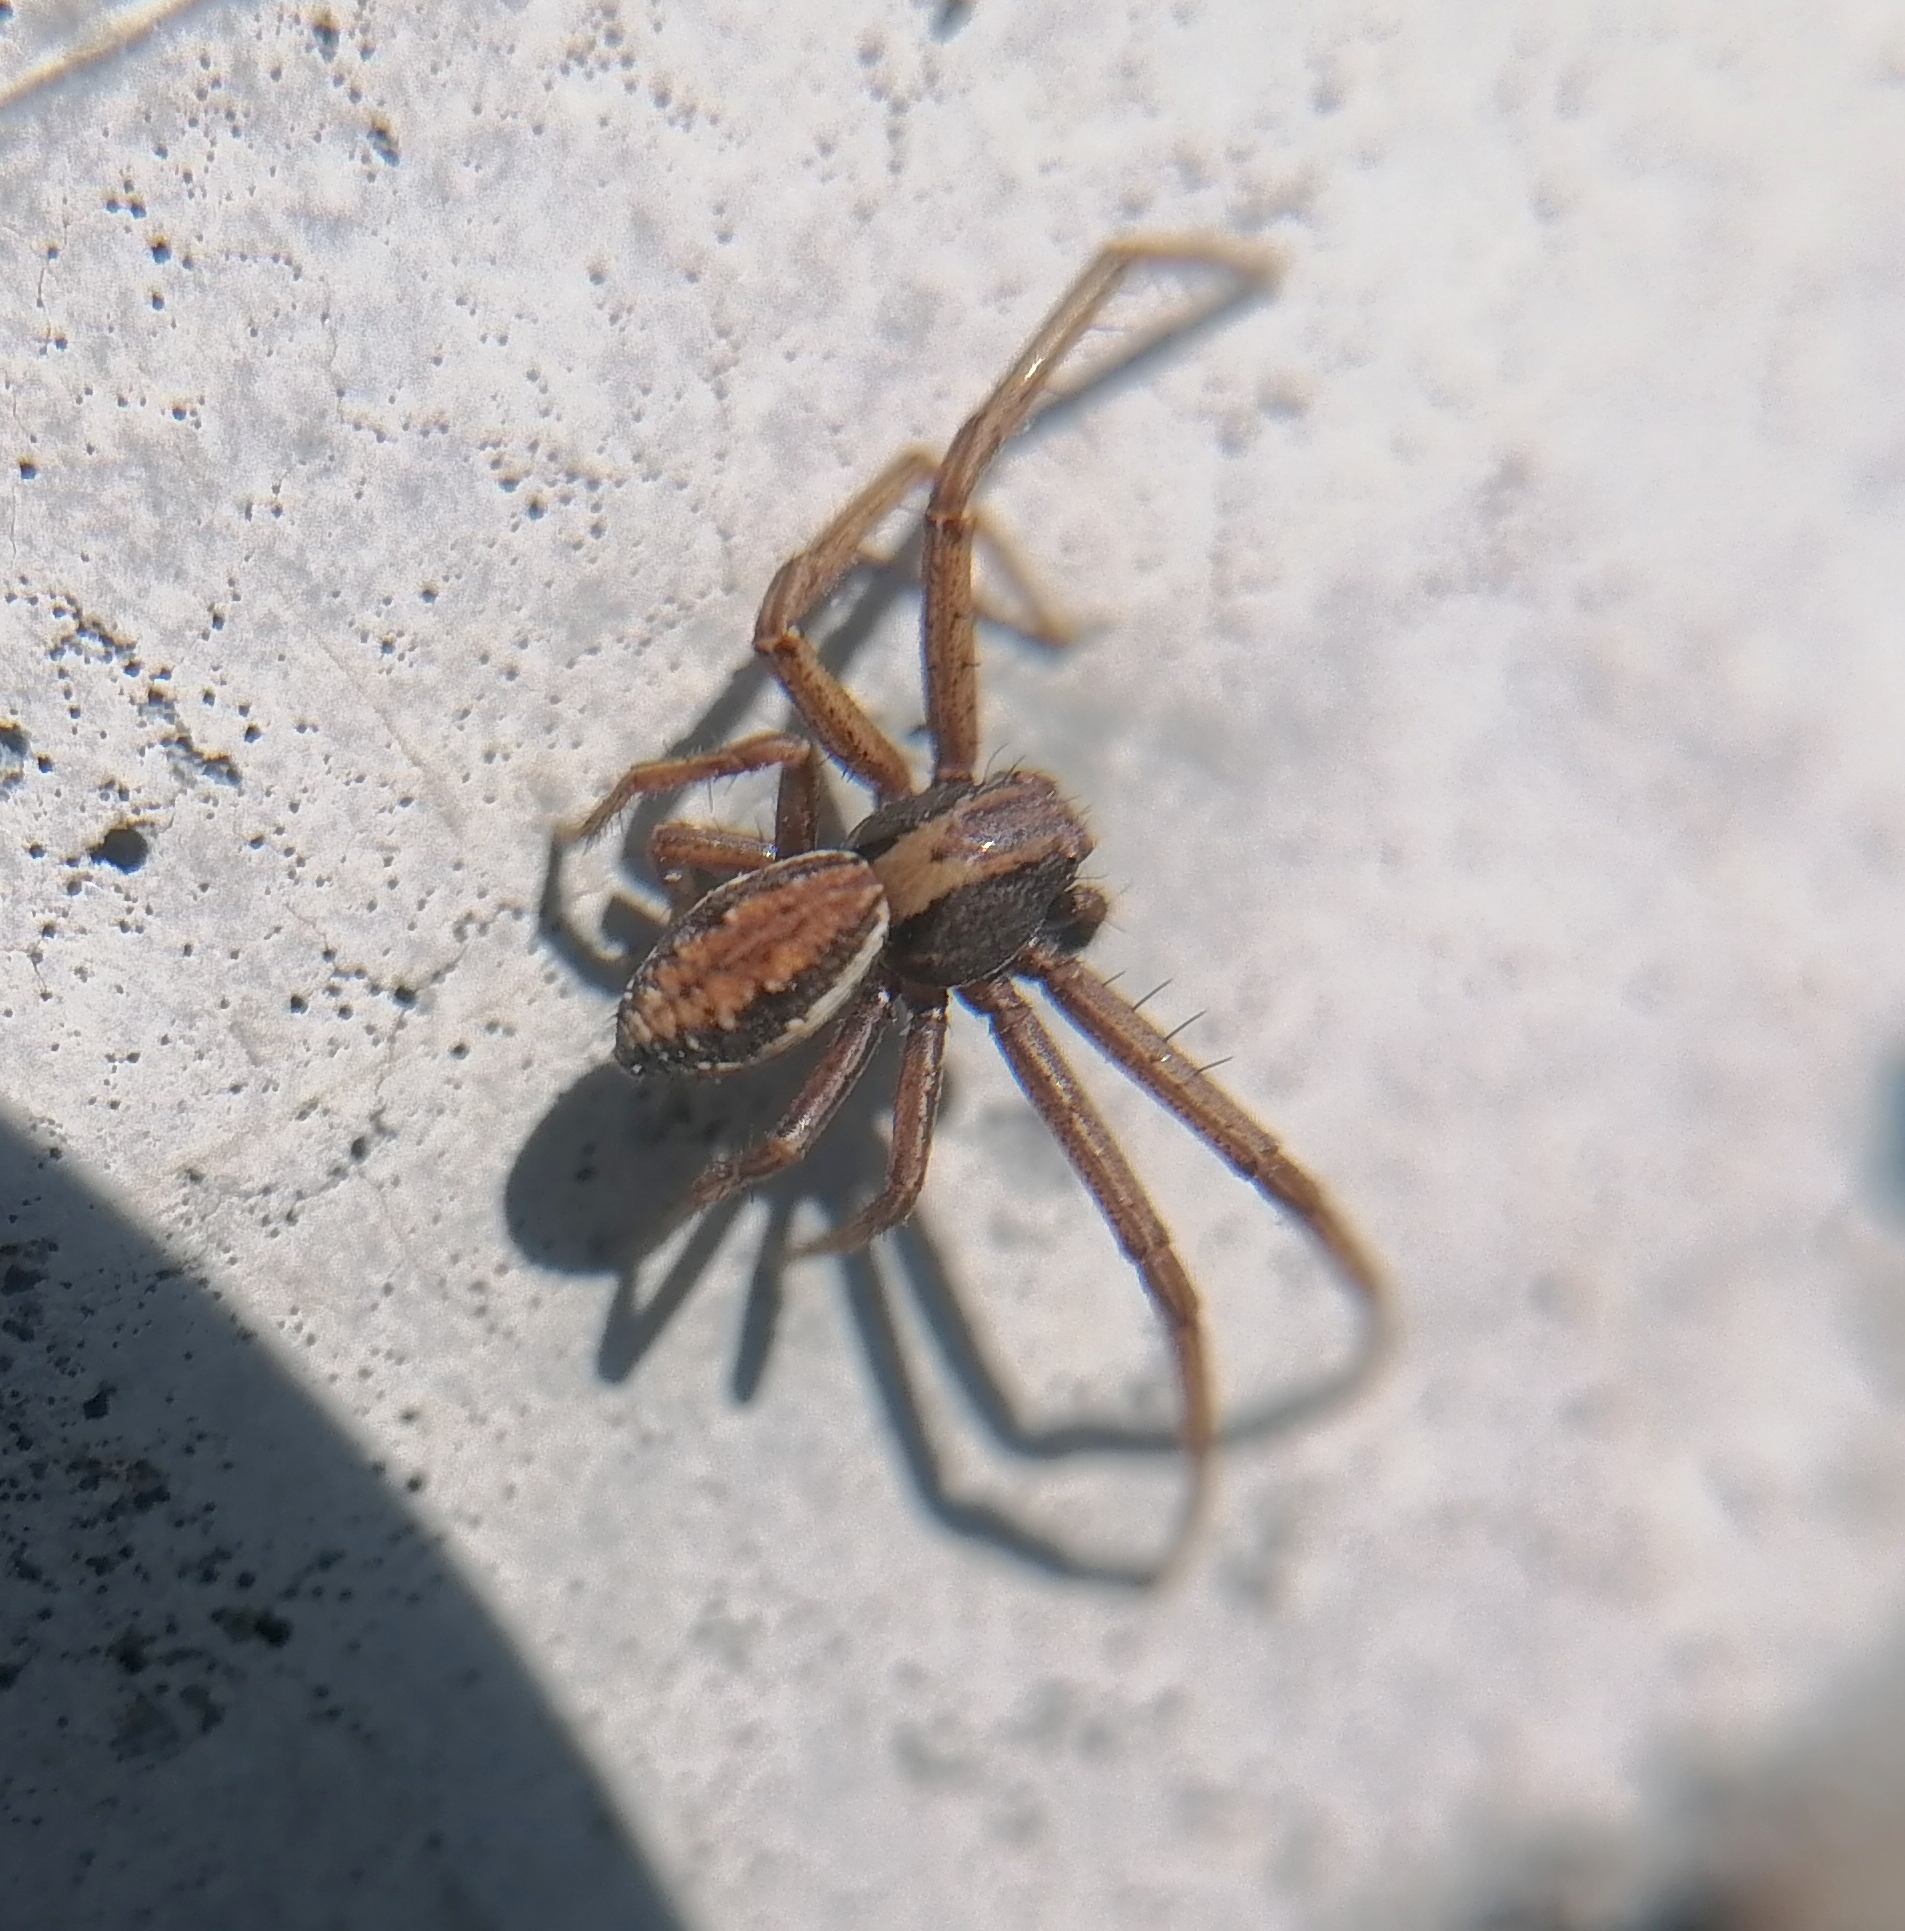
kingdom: Animalia
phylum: Arthropoda
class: Arachnida
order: Araneae
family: Thomisidae
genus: Spiracme
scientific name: Spiracme striatipes
